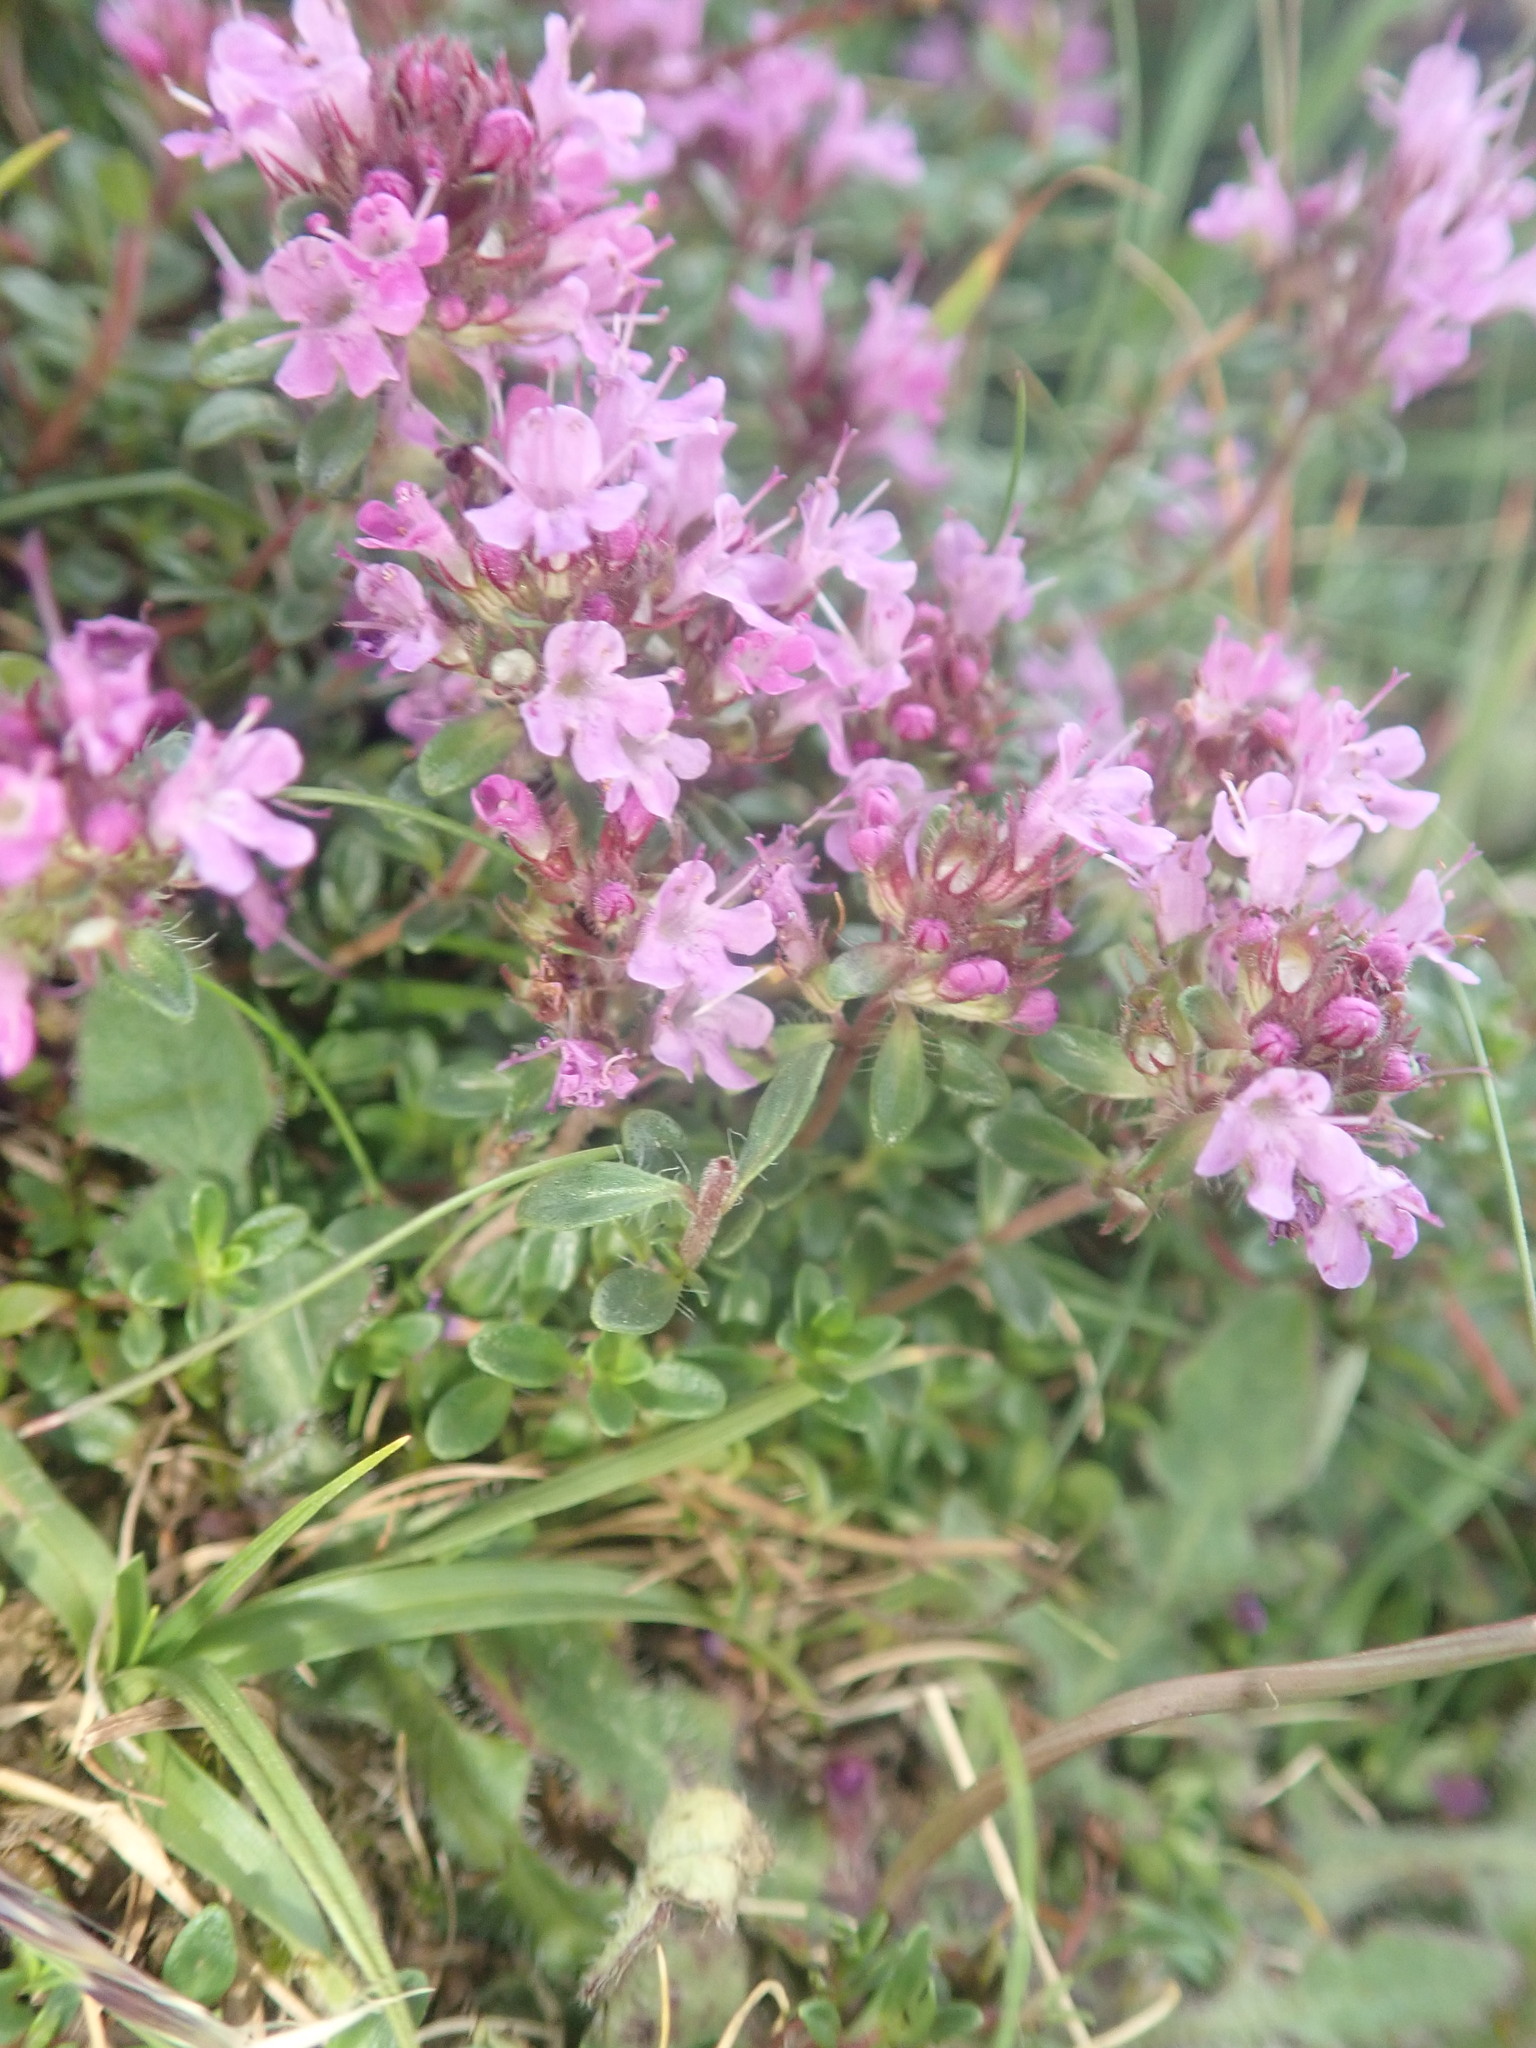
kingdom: Plantae
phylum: Tracheophyta
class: Magnoliopsida
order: Lamiales
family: Lamiaceae
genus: Thymus
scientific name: Thymus praecox
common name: Wild thyme
